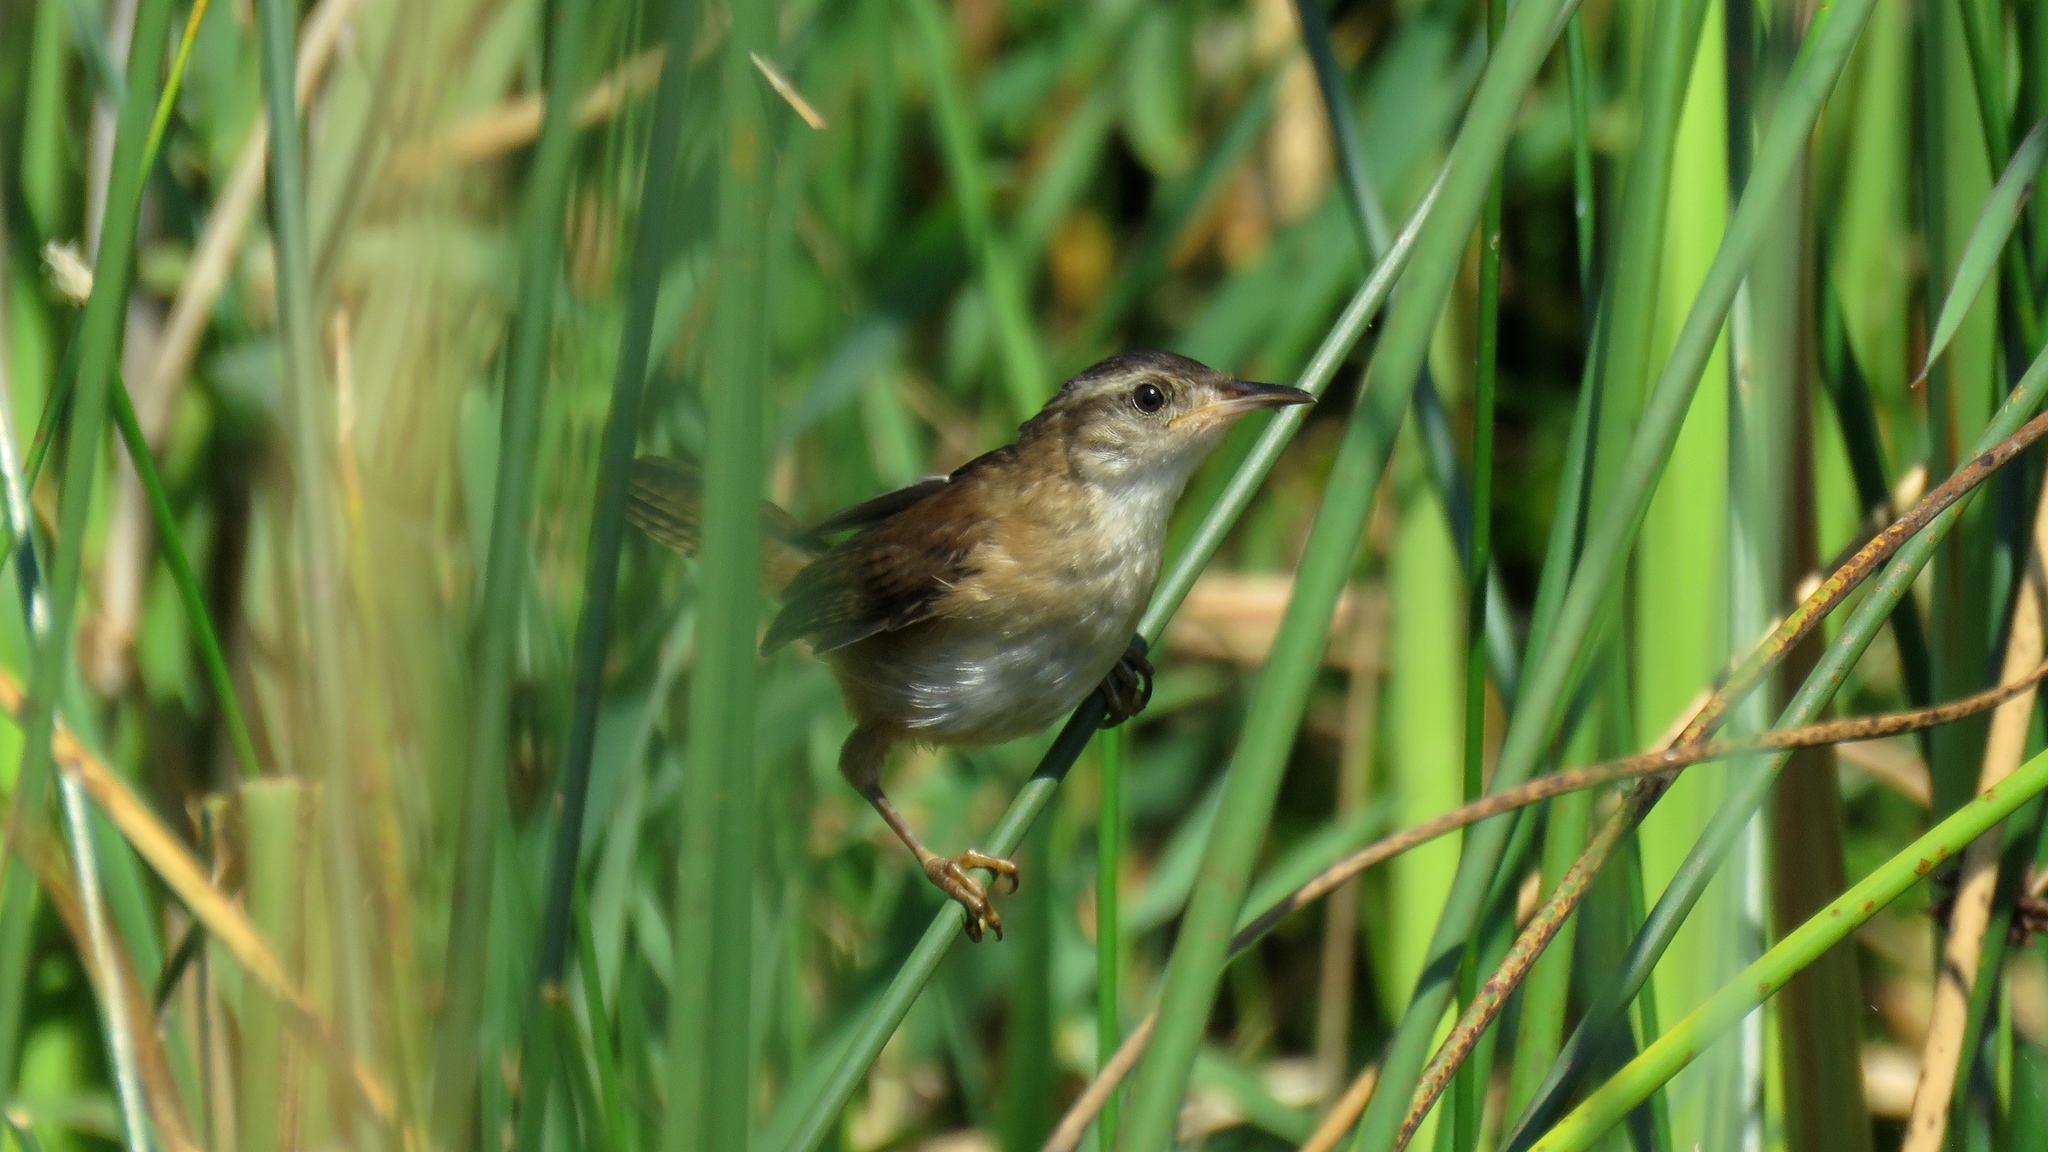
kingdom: Animalia
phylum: Chordata
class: Aves
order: Passeriformes
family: Troglodytidae
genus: Cistothorus
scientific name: Cistothorus palustris
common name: Marsh wren
